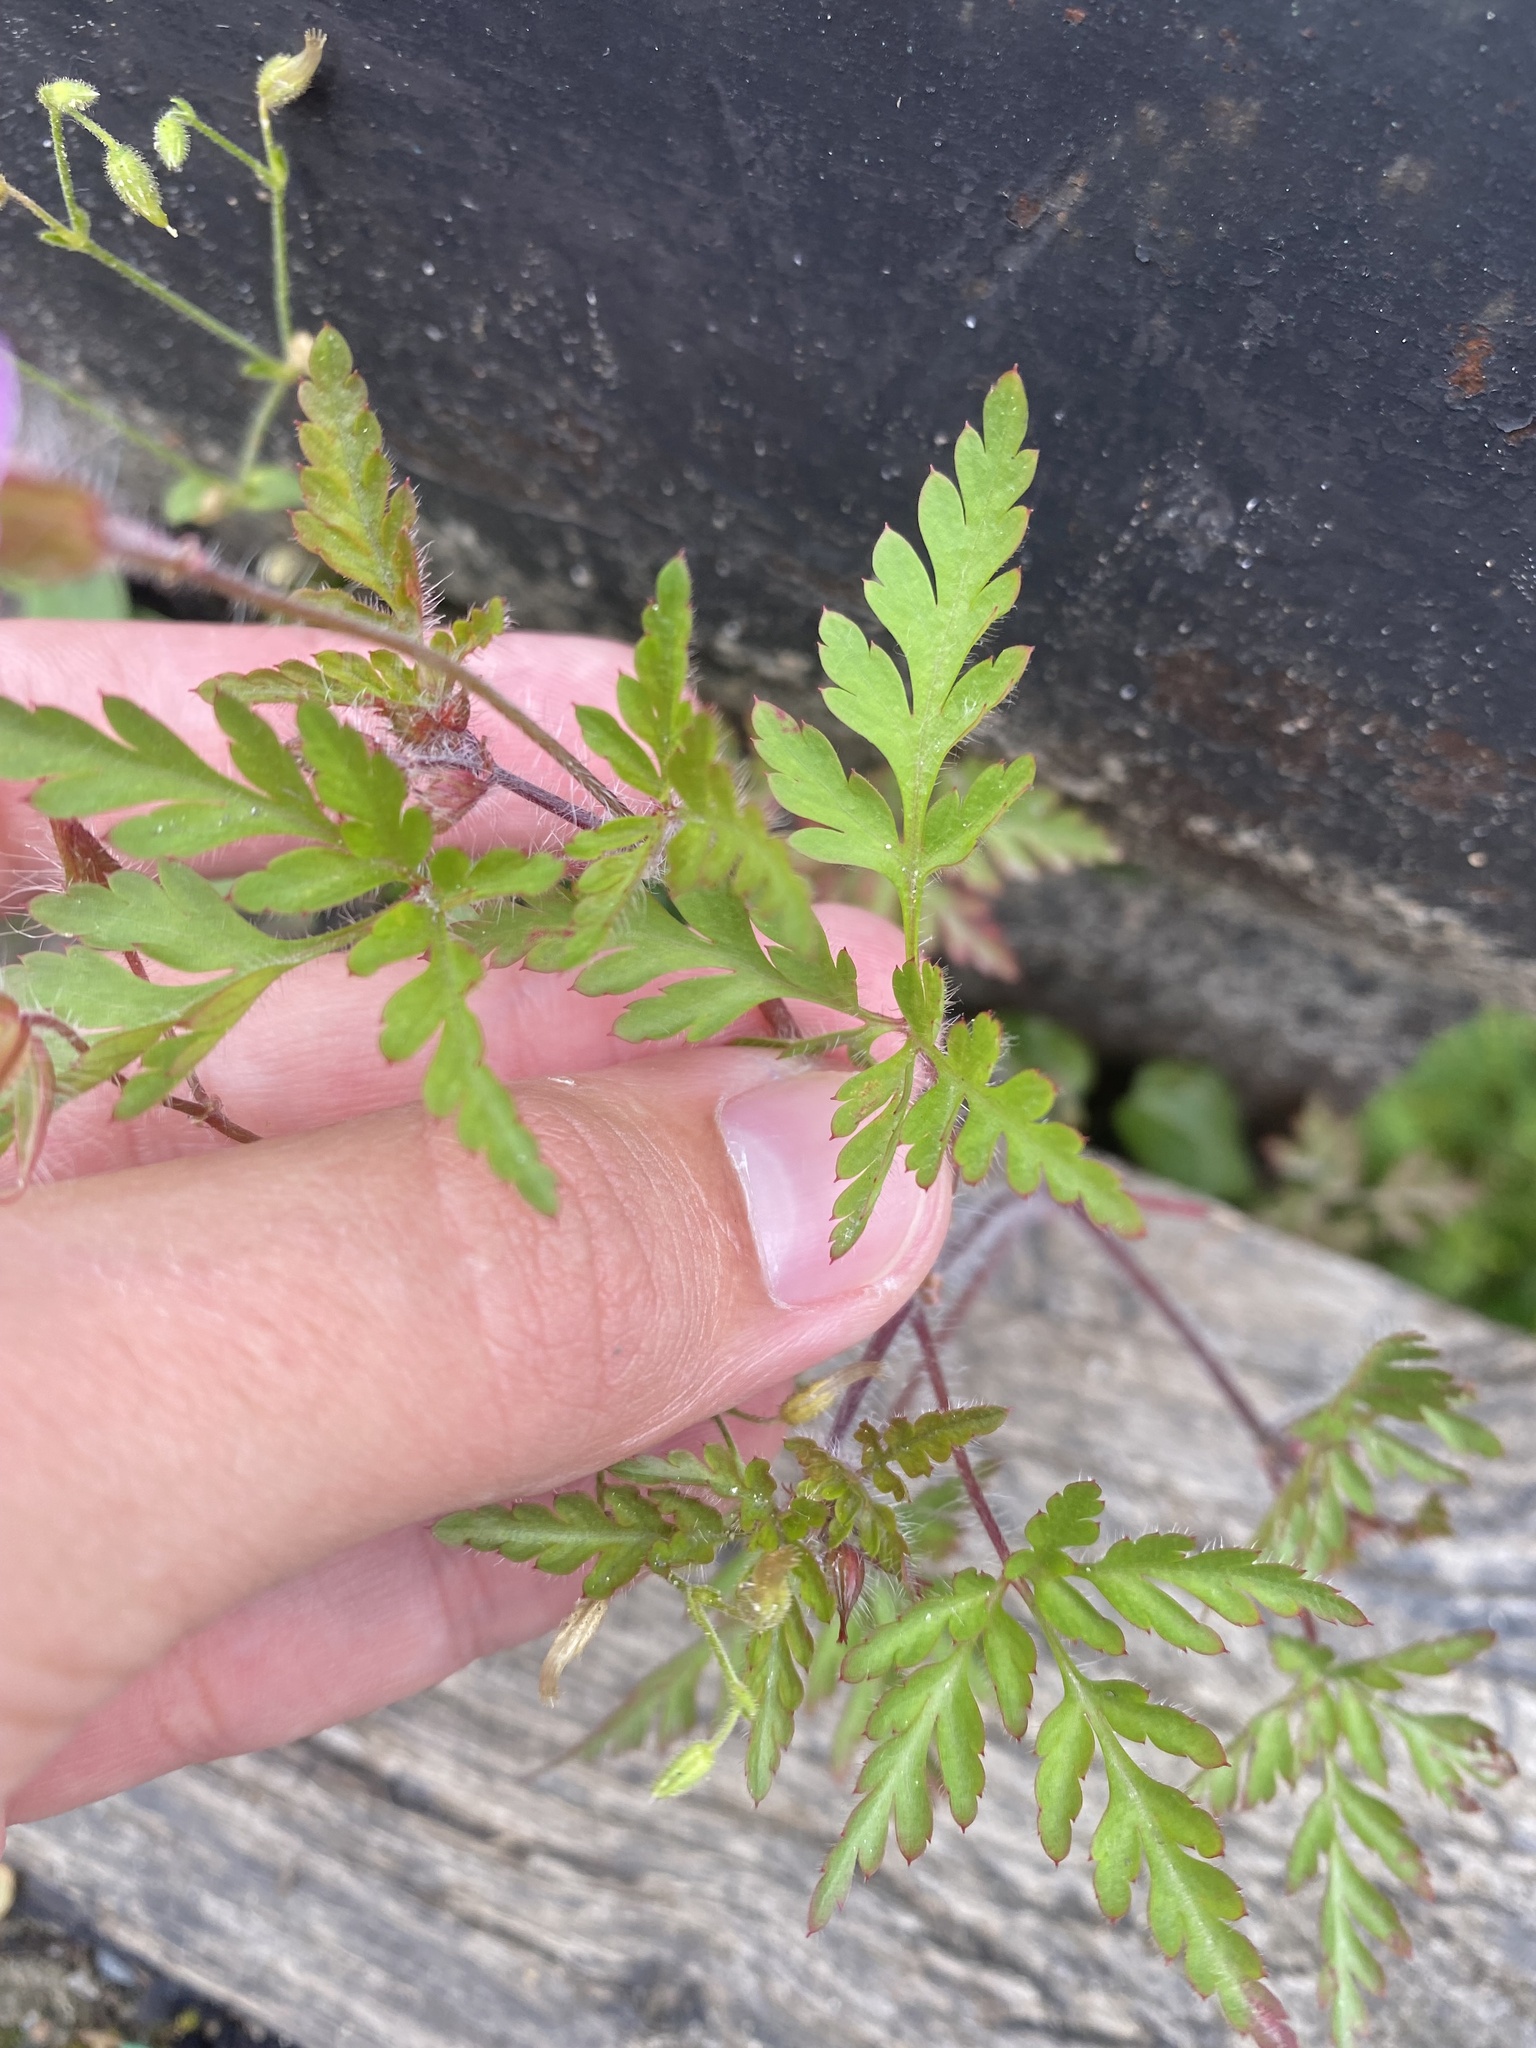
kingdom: Plantae
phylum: Tracheophyta
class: Magnoliopsida
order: Geraniales
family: Geraniaceae
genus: Geranium
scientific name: Geranium robertianum
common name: Herb-robert
